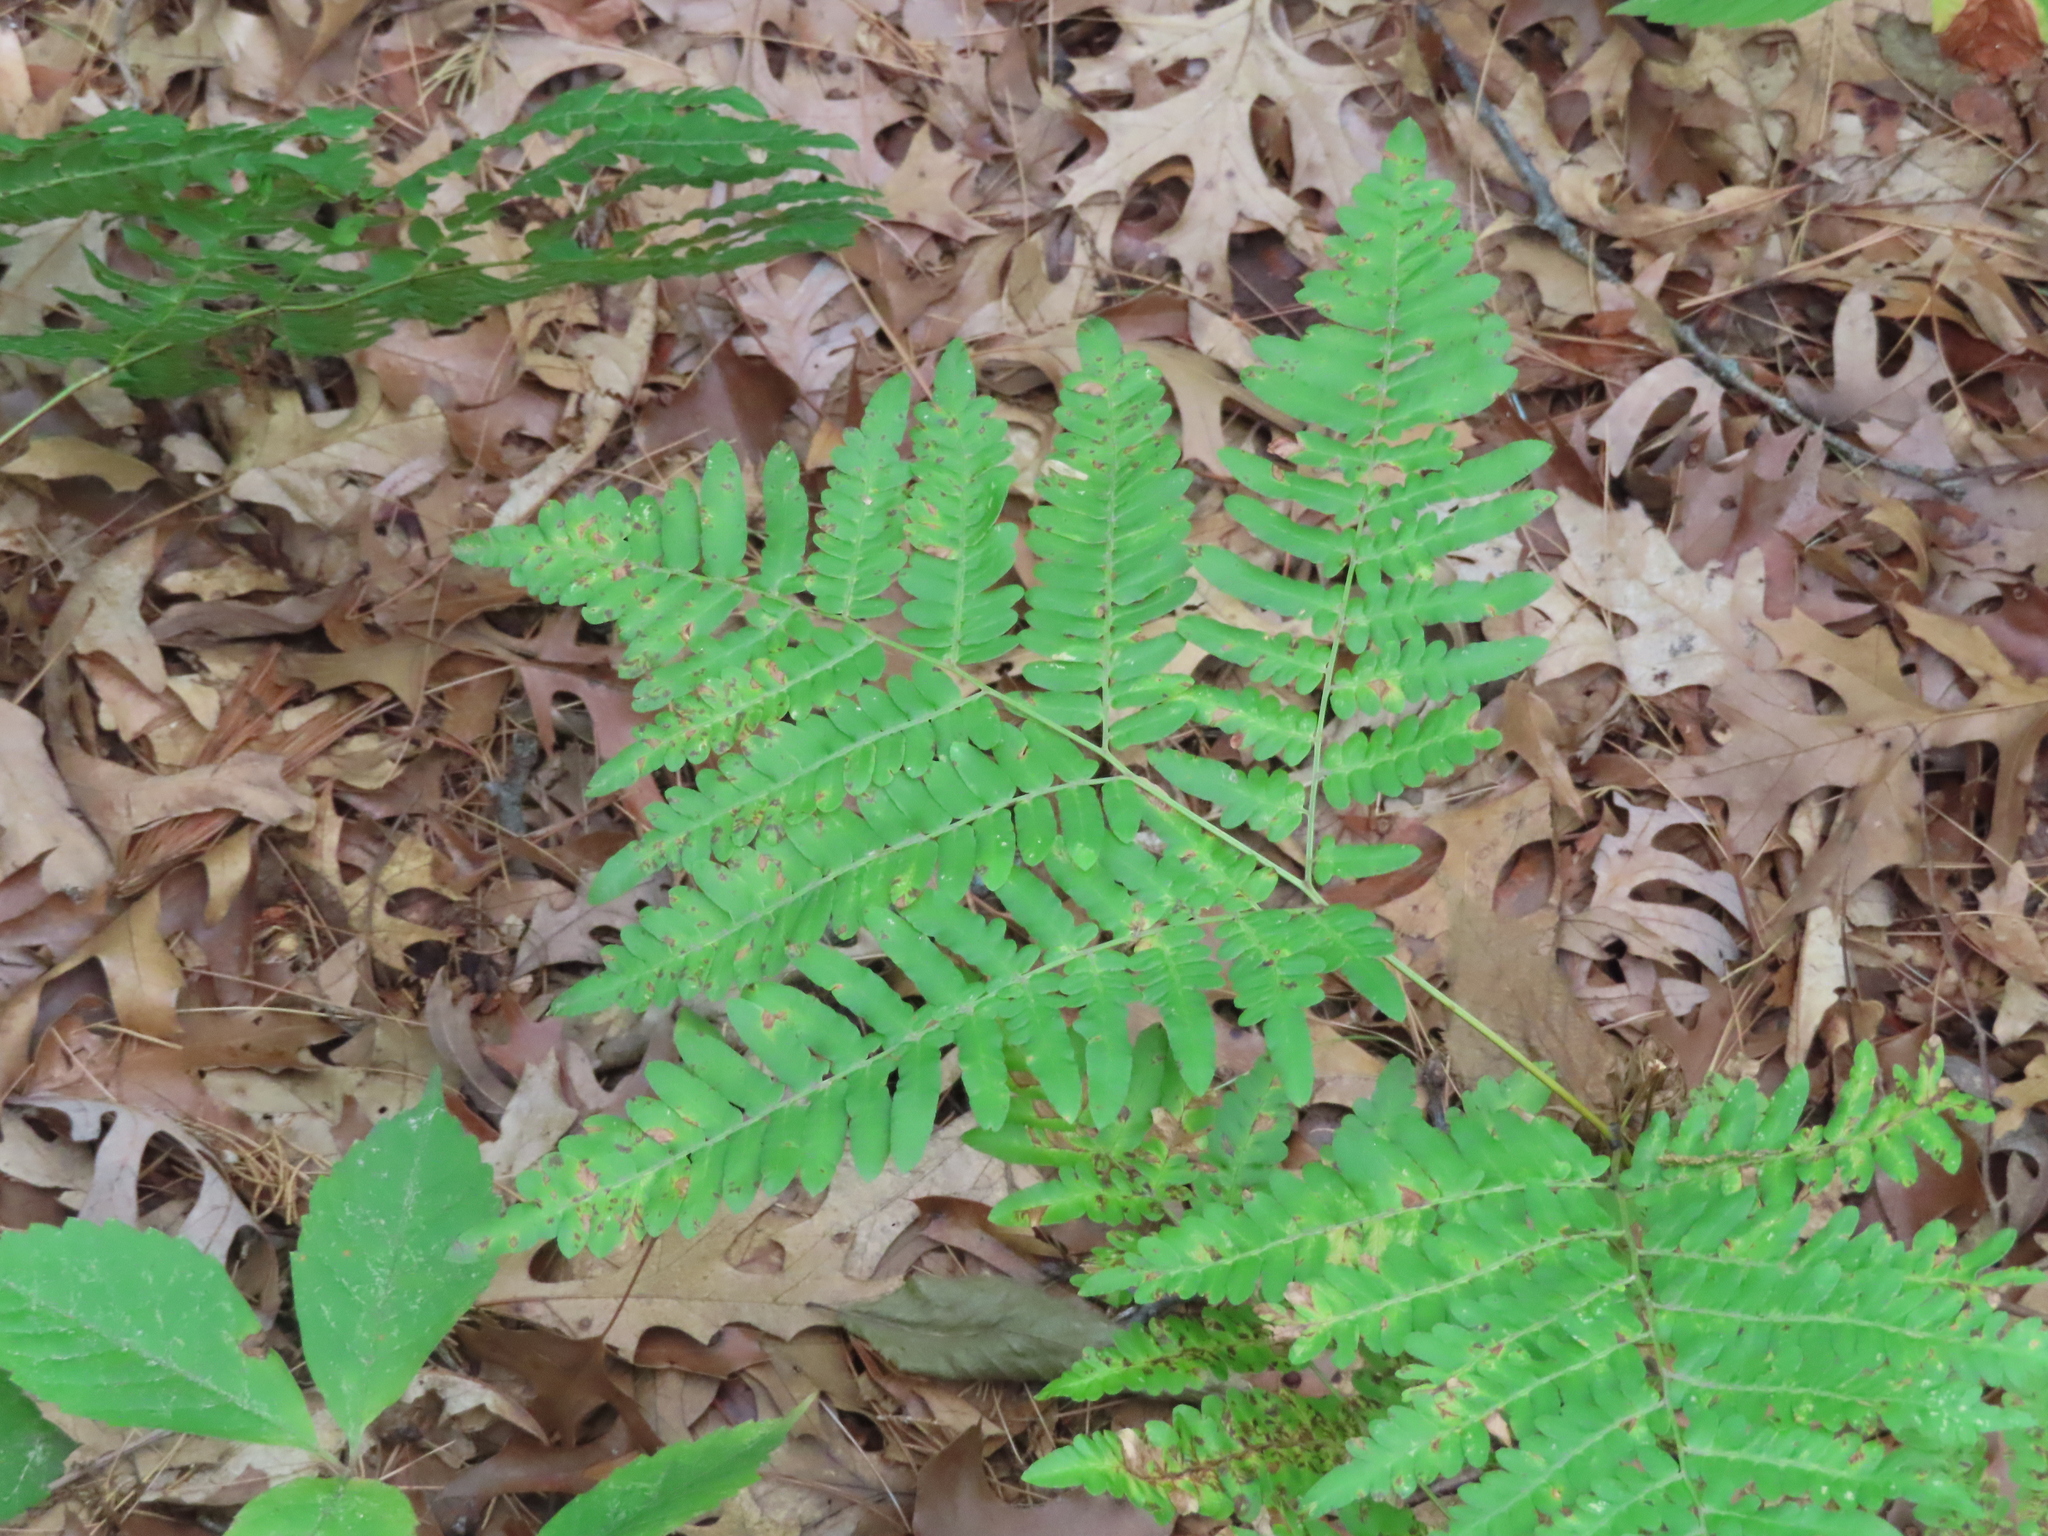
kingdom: Plantae
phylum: Tracheophyta
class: Polypodiopsida
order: Polypodiales
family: Dennstaedtiaceae
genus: Pteridium
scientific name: Pteridium aquilinum
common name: Bracken
